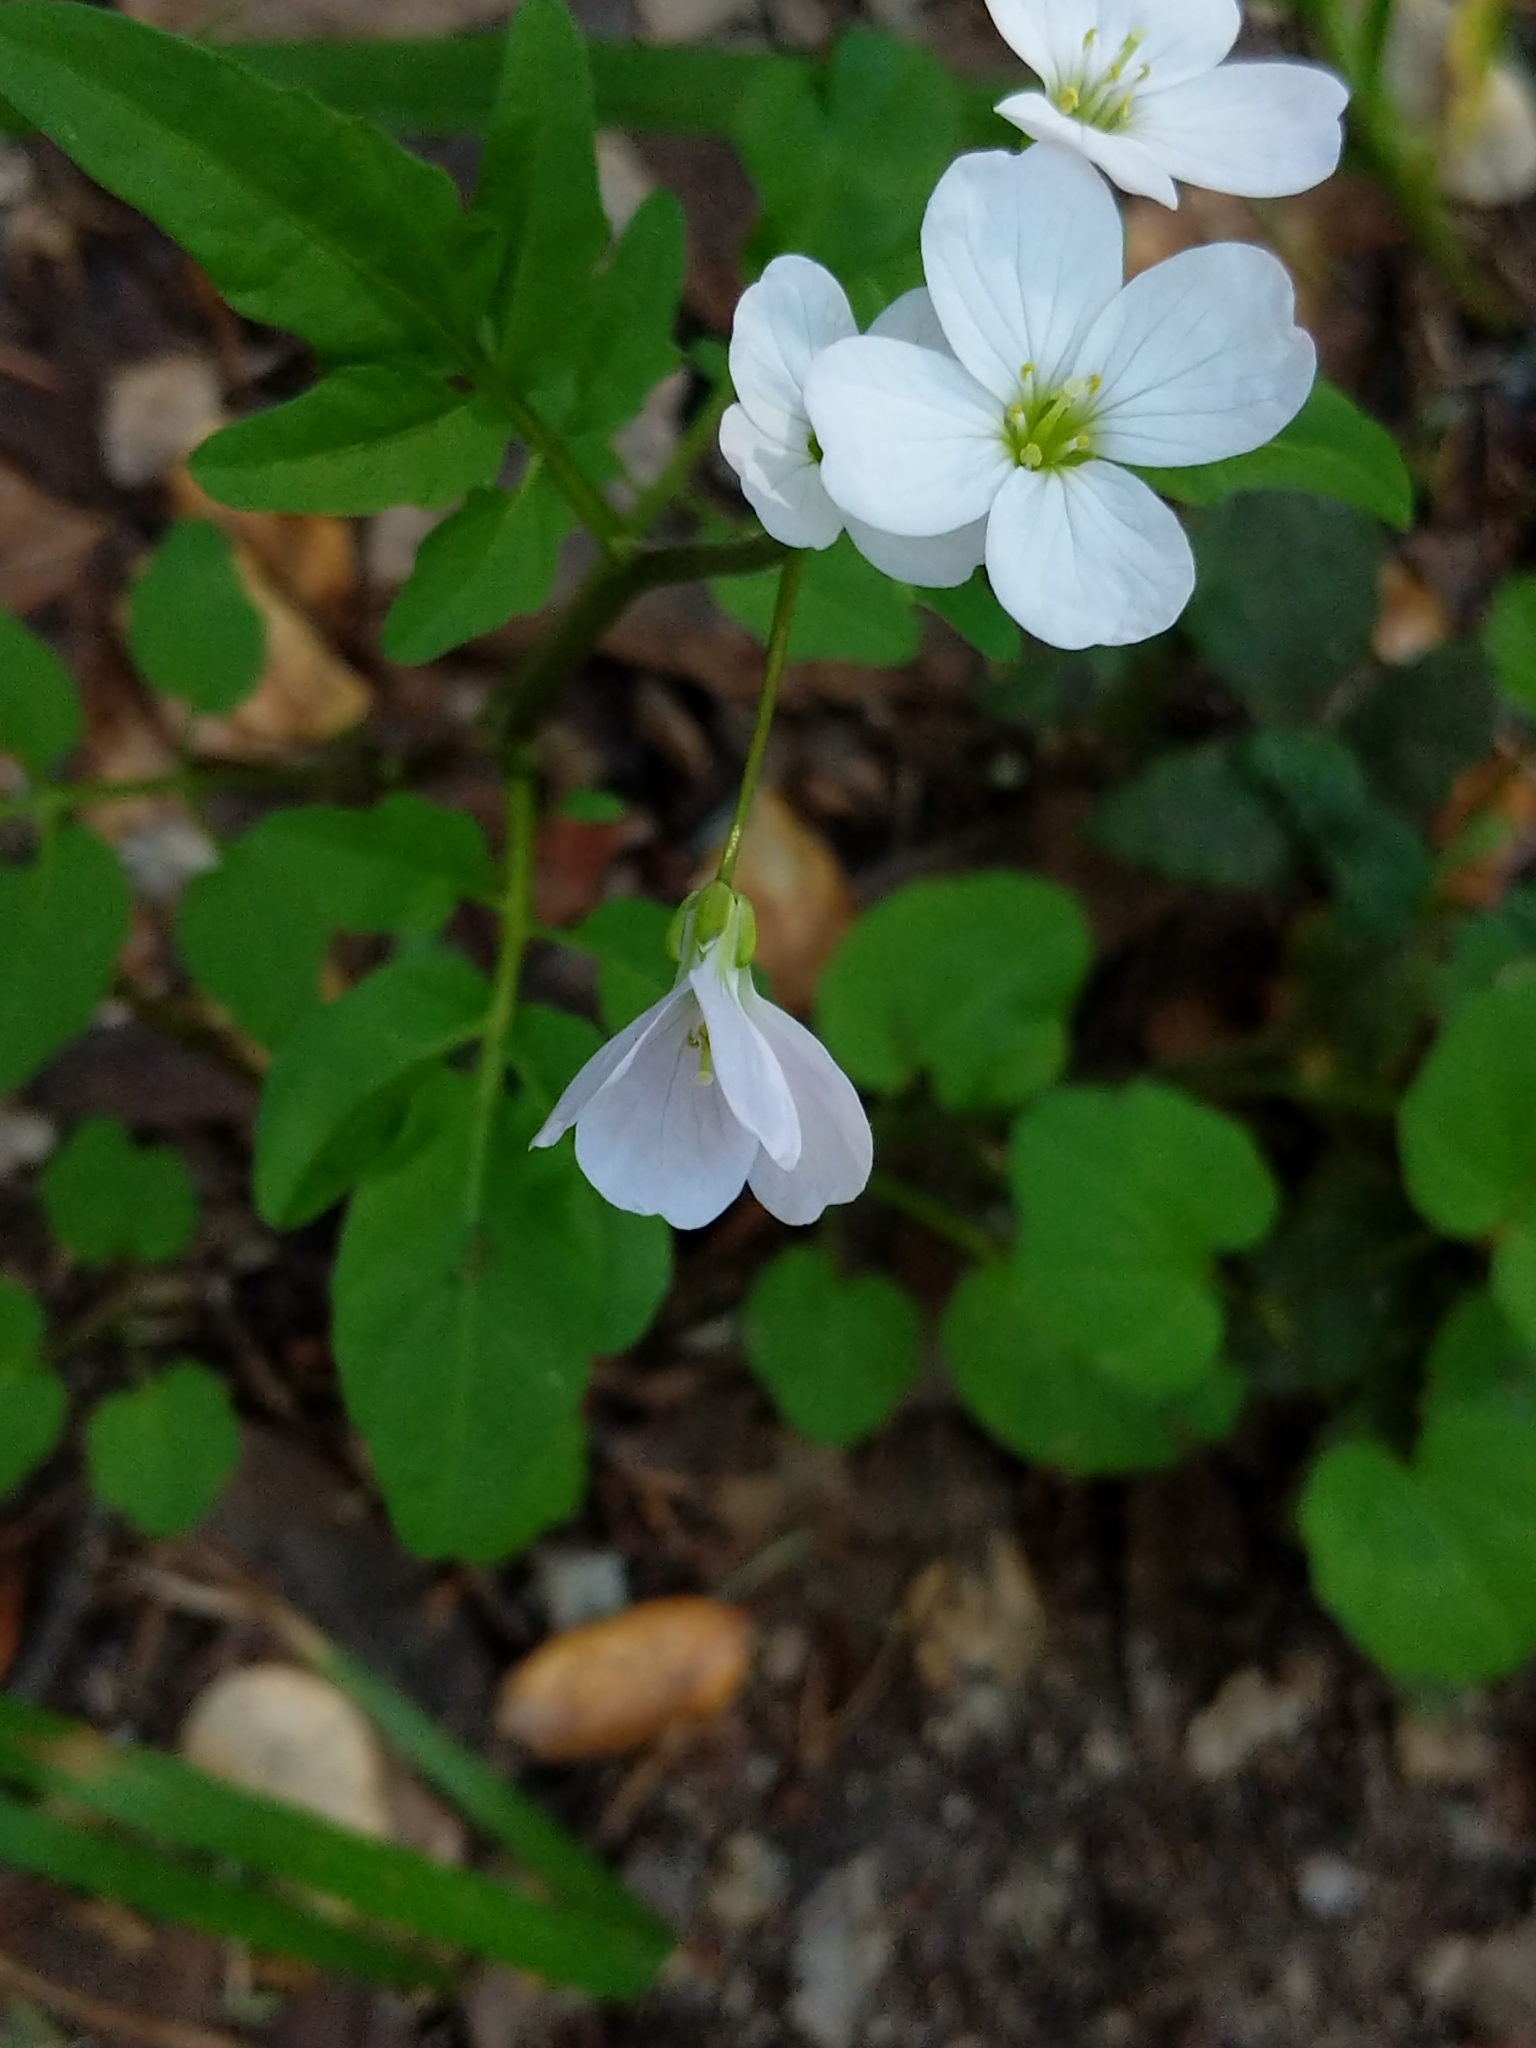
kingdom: Plantae
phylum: Tracheophyta
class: Magnoliopsida
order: Brassicales
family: Brassicaceae
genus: Cardamine
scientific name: Cardamine californica
